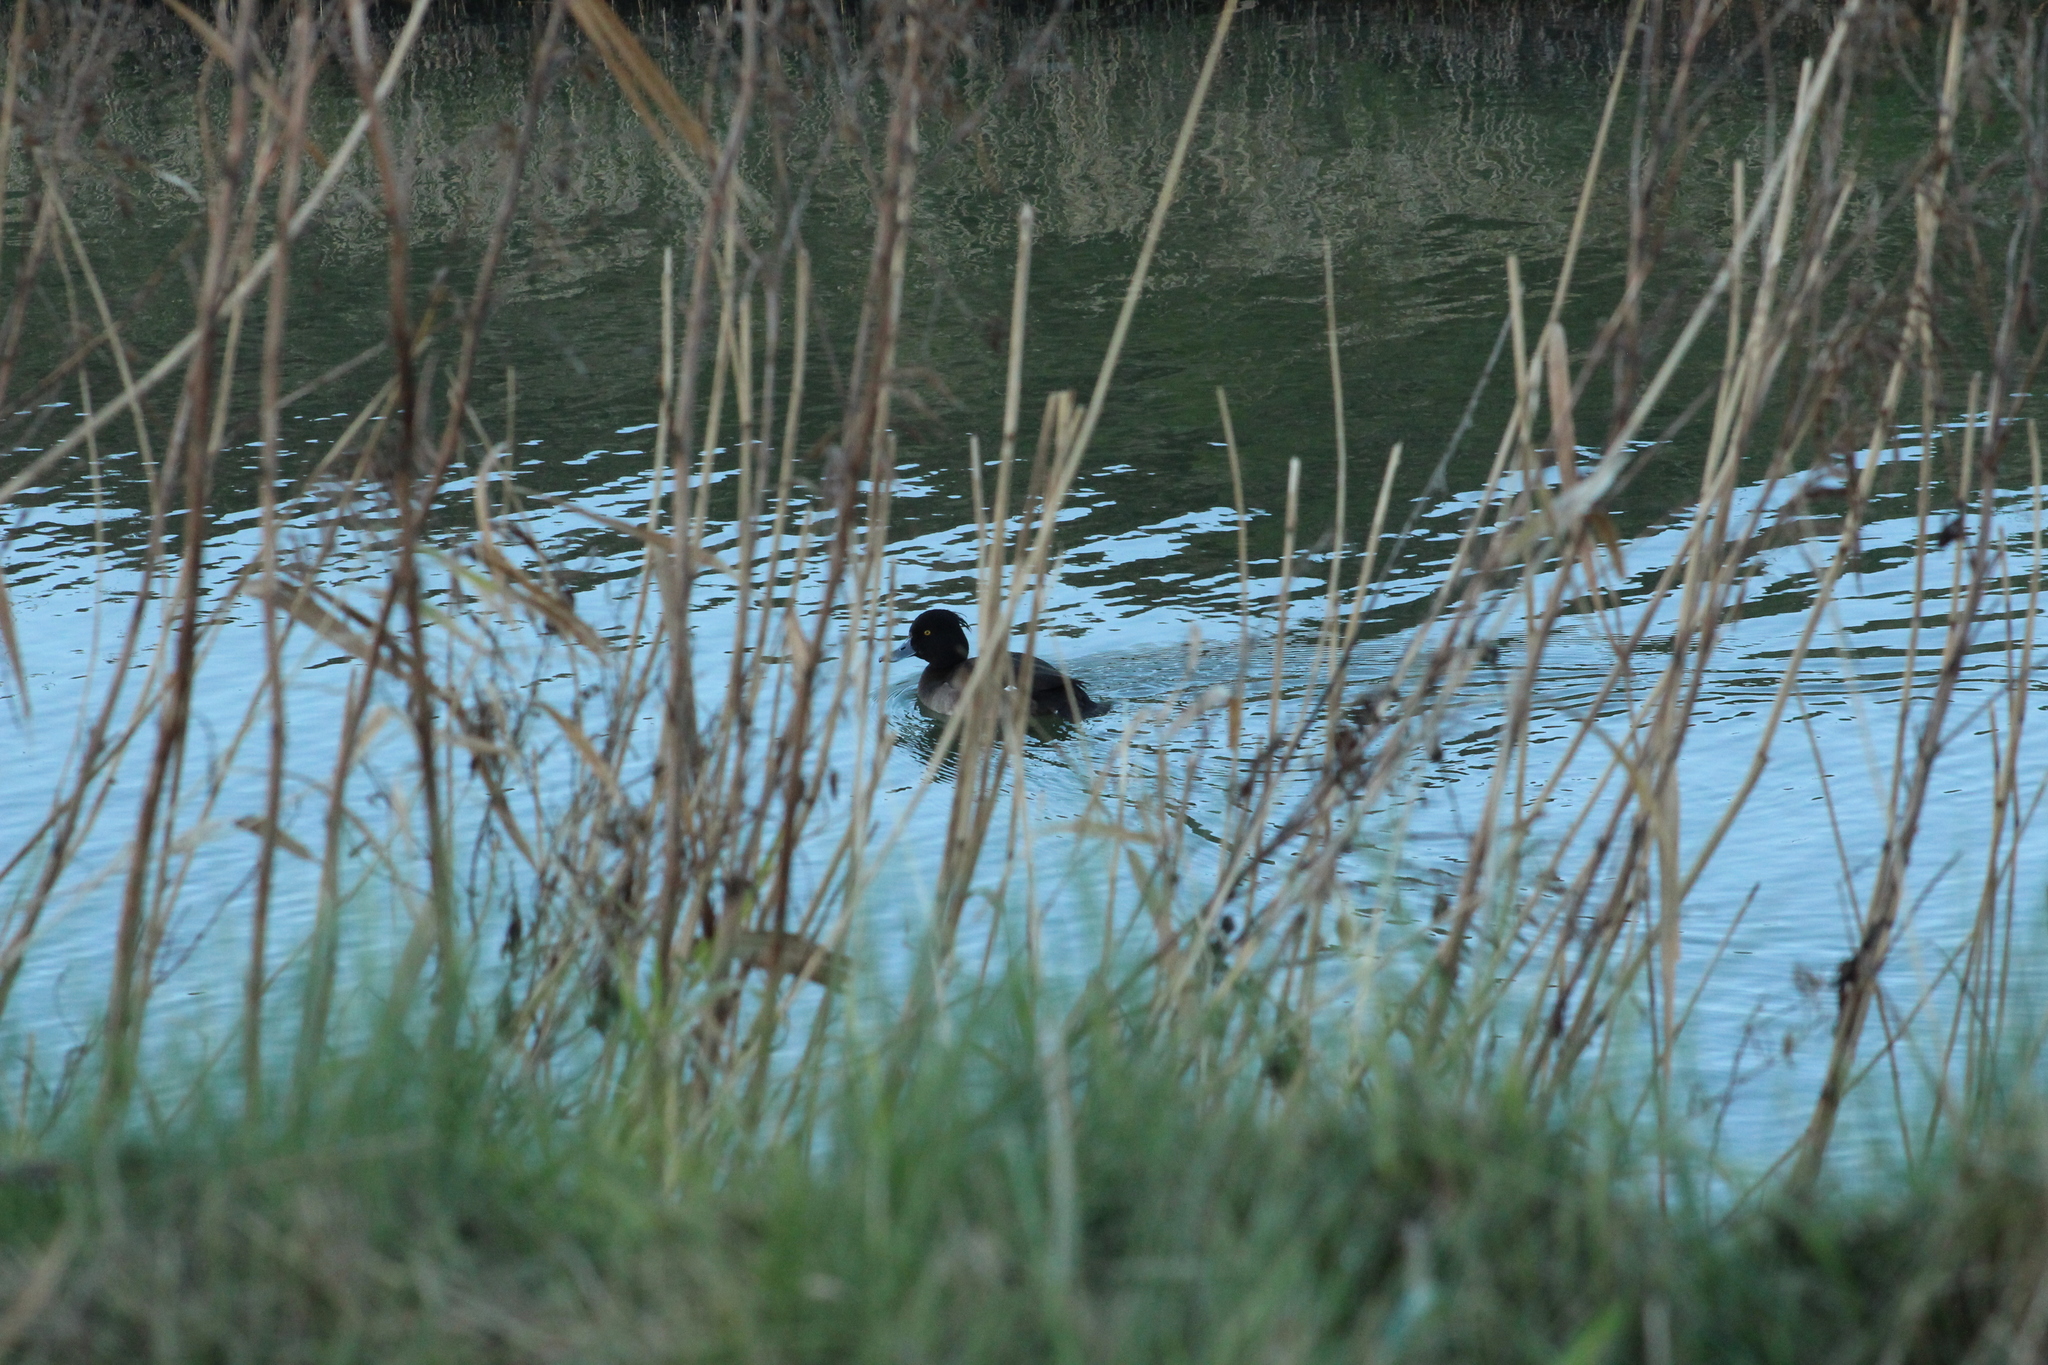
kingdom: Animalia
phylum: Chordata
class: Aves
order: Anseriformes
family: Anatidae
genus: Aythya
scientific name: Aythya fuligula
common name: Tufted duck
